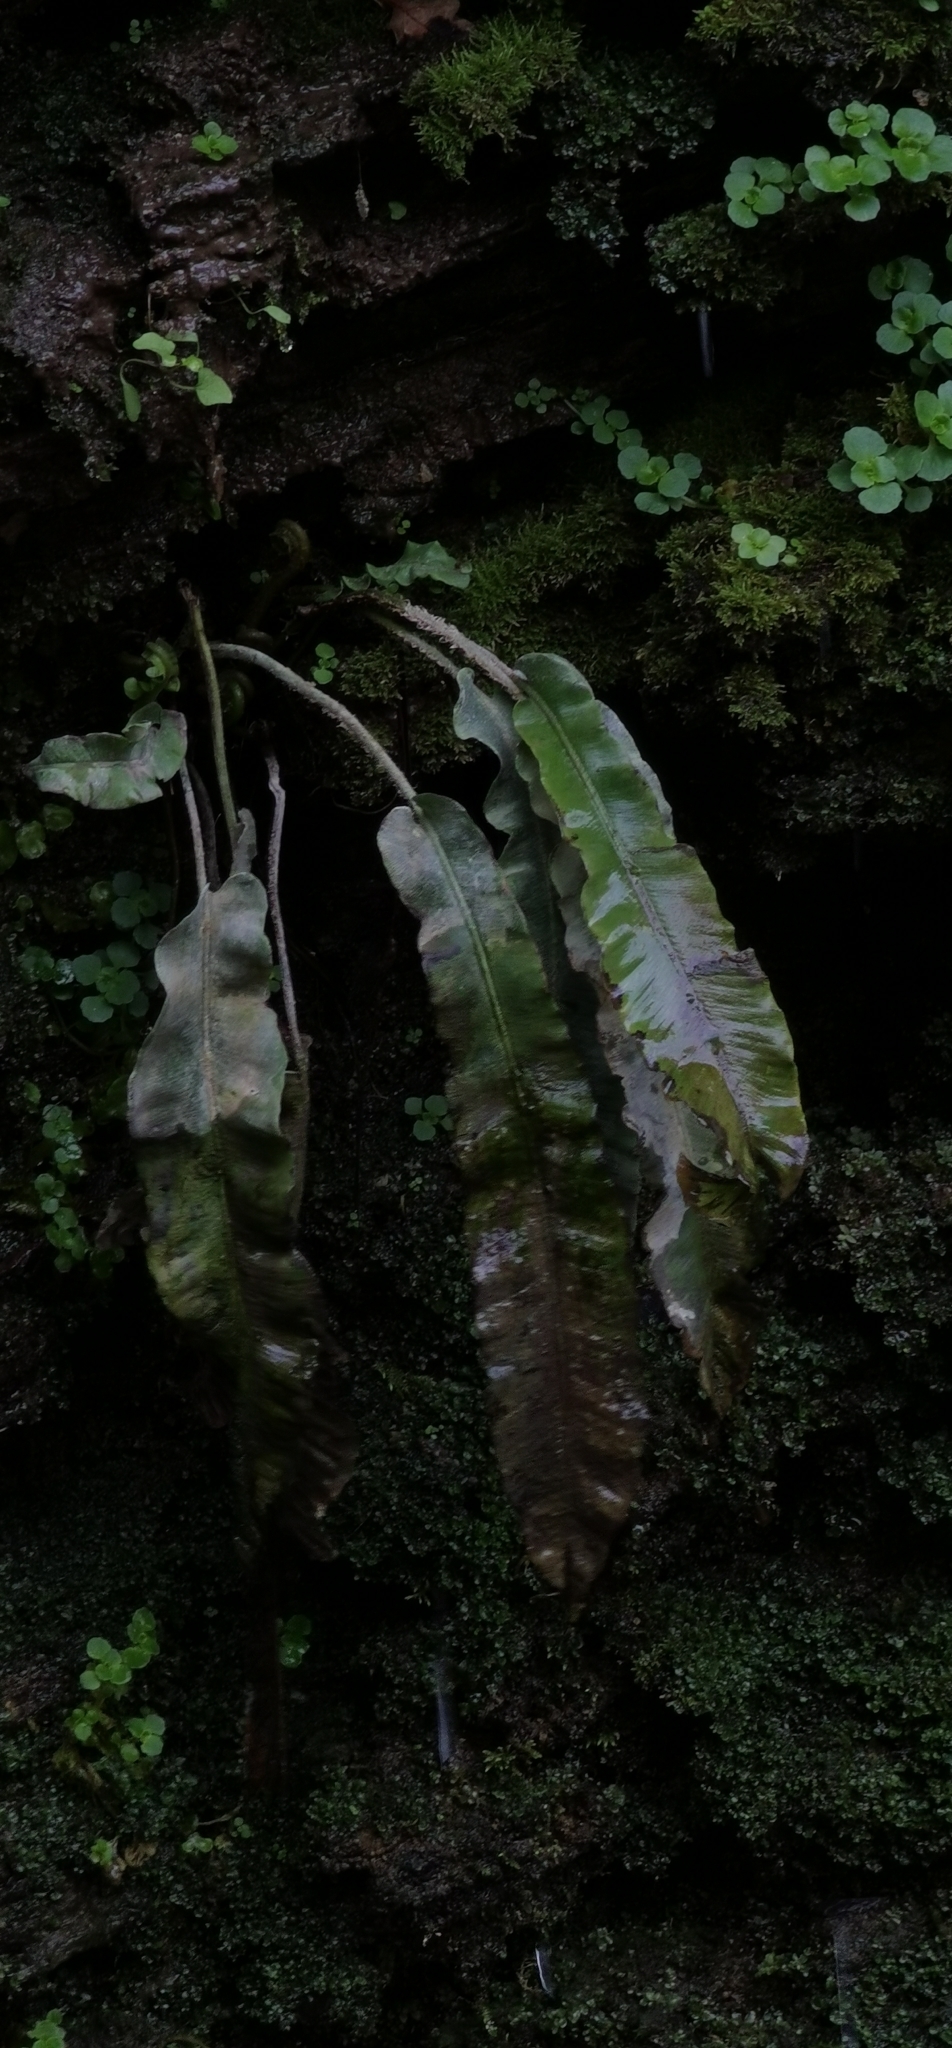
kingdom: Plantae
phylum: Tracheophyta
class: Polypodiopsida
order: Polypodiales
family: Aspleniaceae
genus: Asplenium
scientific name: Asplenium scolopendrium
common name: Hart's-tongue fern
